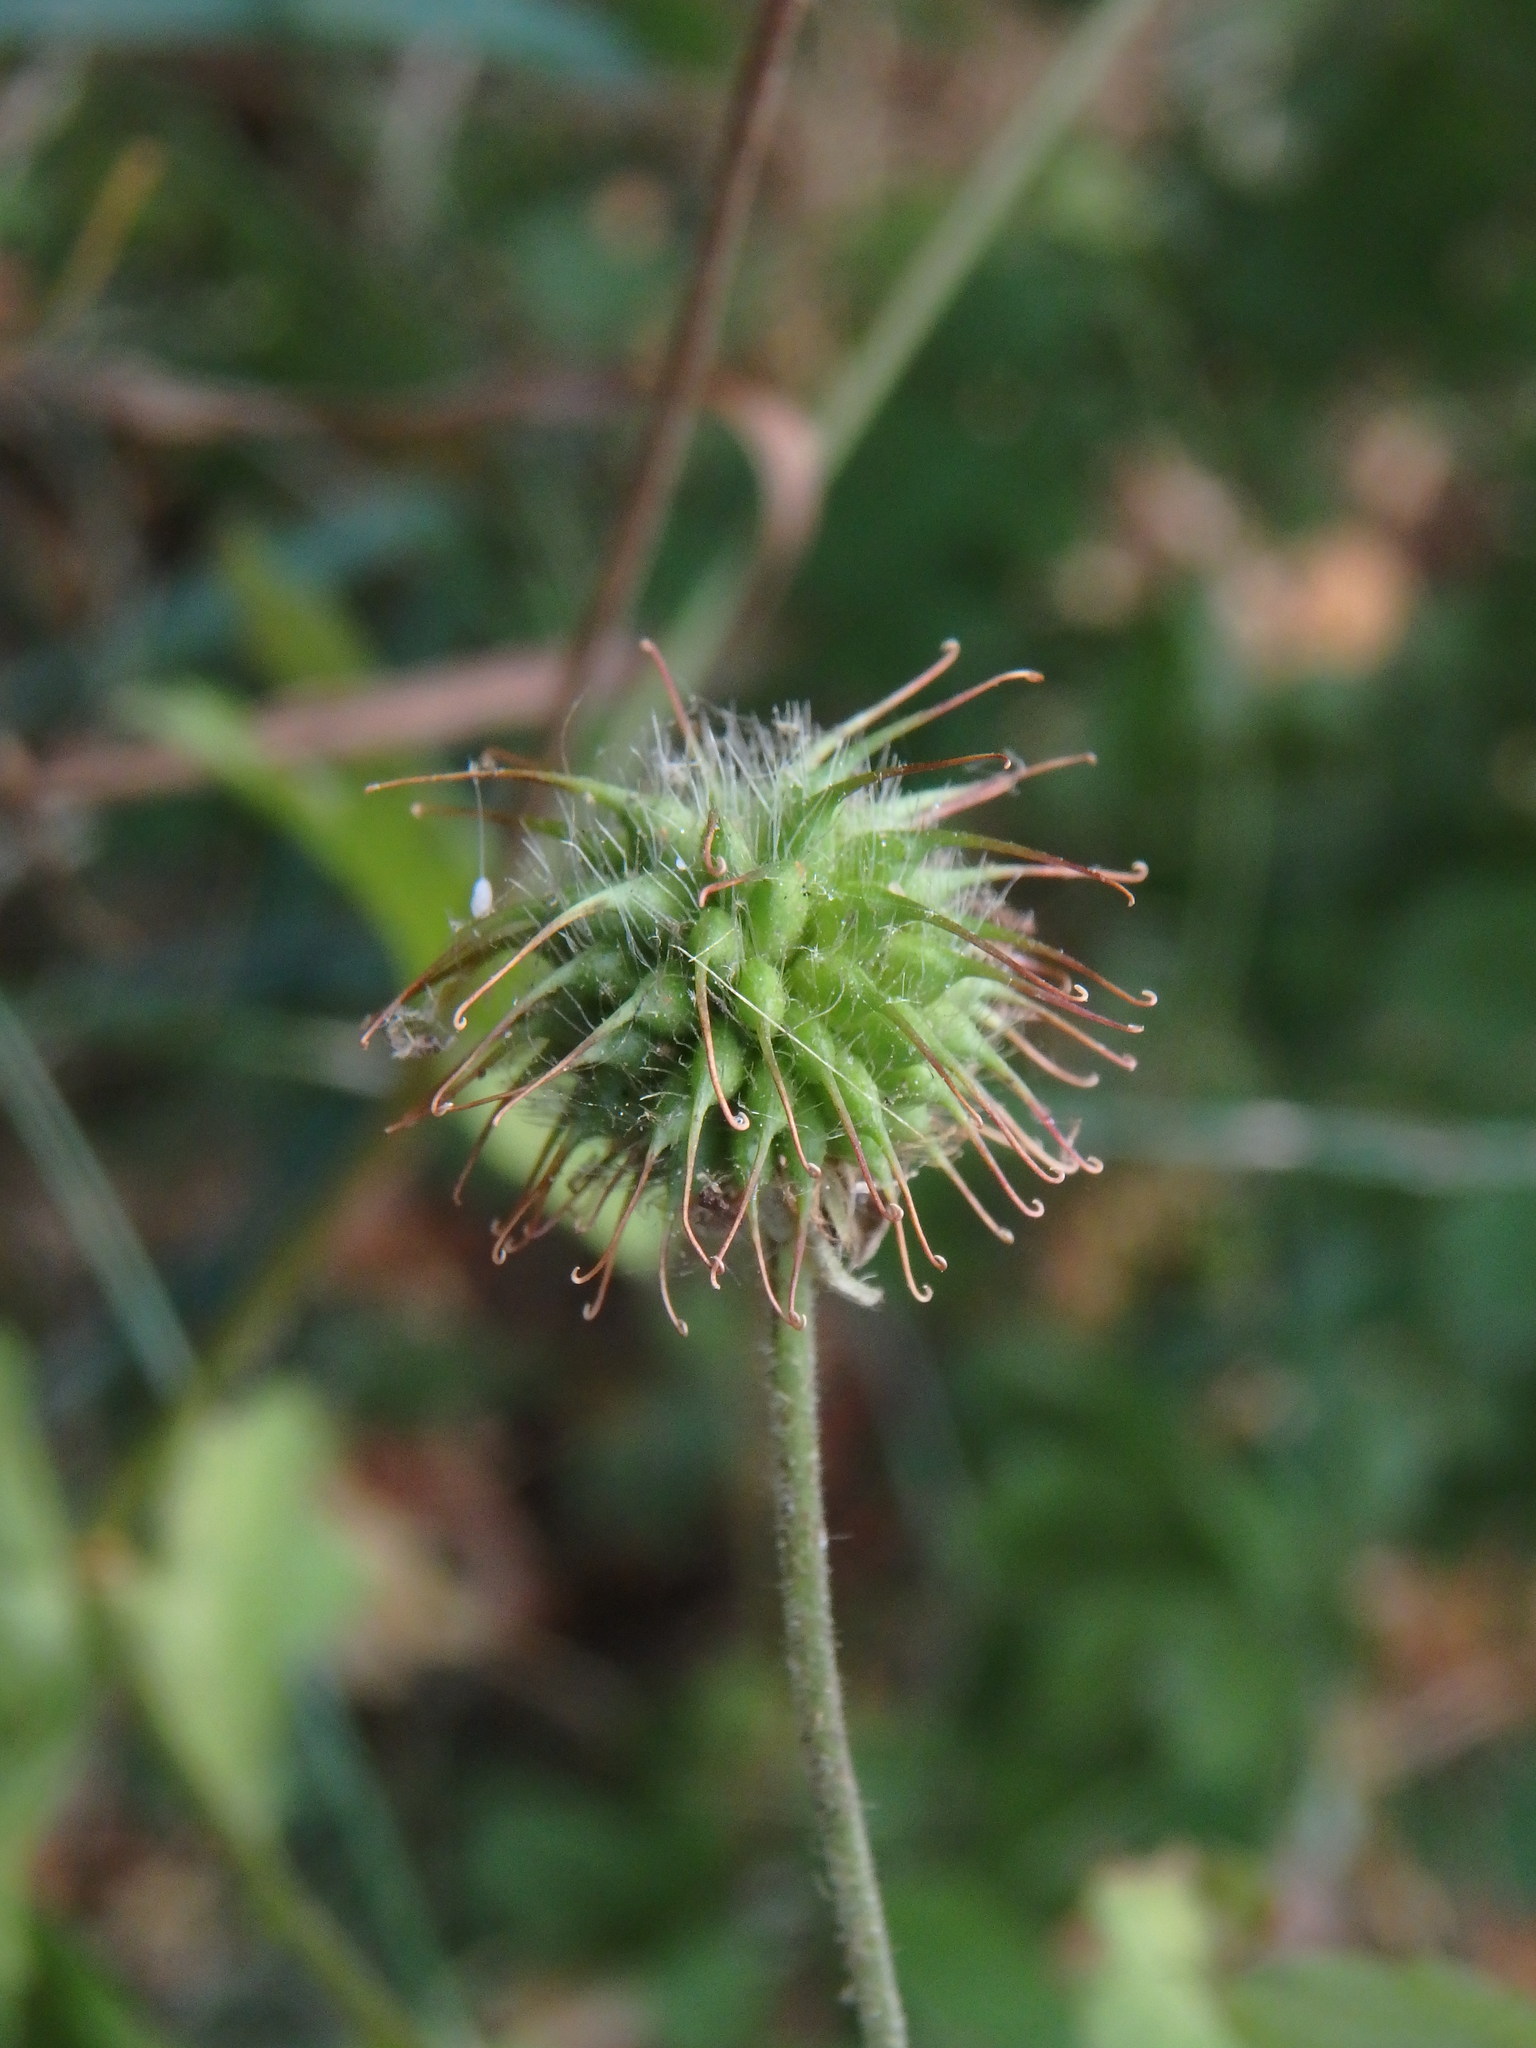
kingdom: Plantae
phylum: Tracheophyta
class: Magnoliopsida
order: Rosales
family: Rosaceae
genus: Geum
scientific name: Geum urbanum
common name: Wood avens
